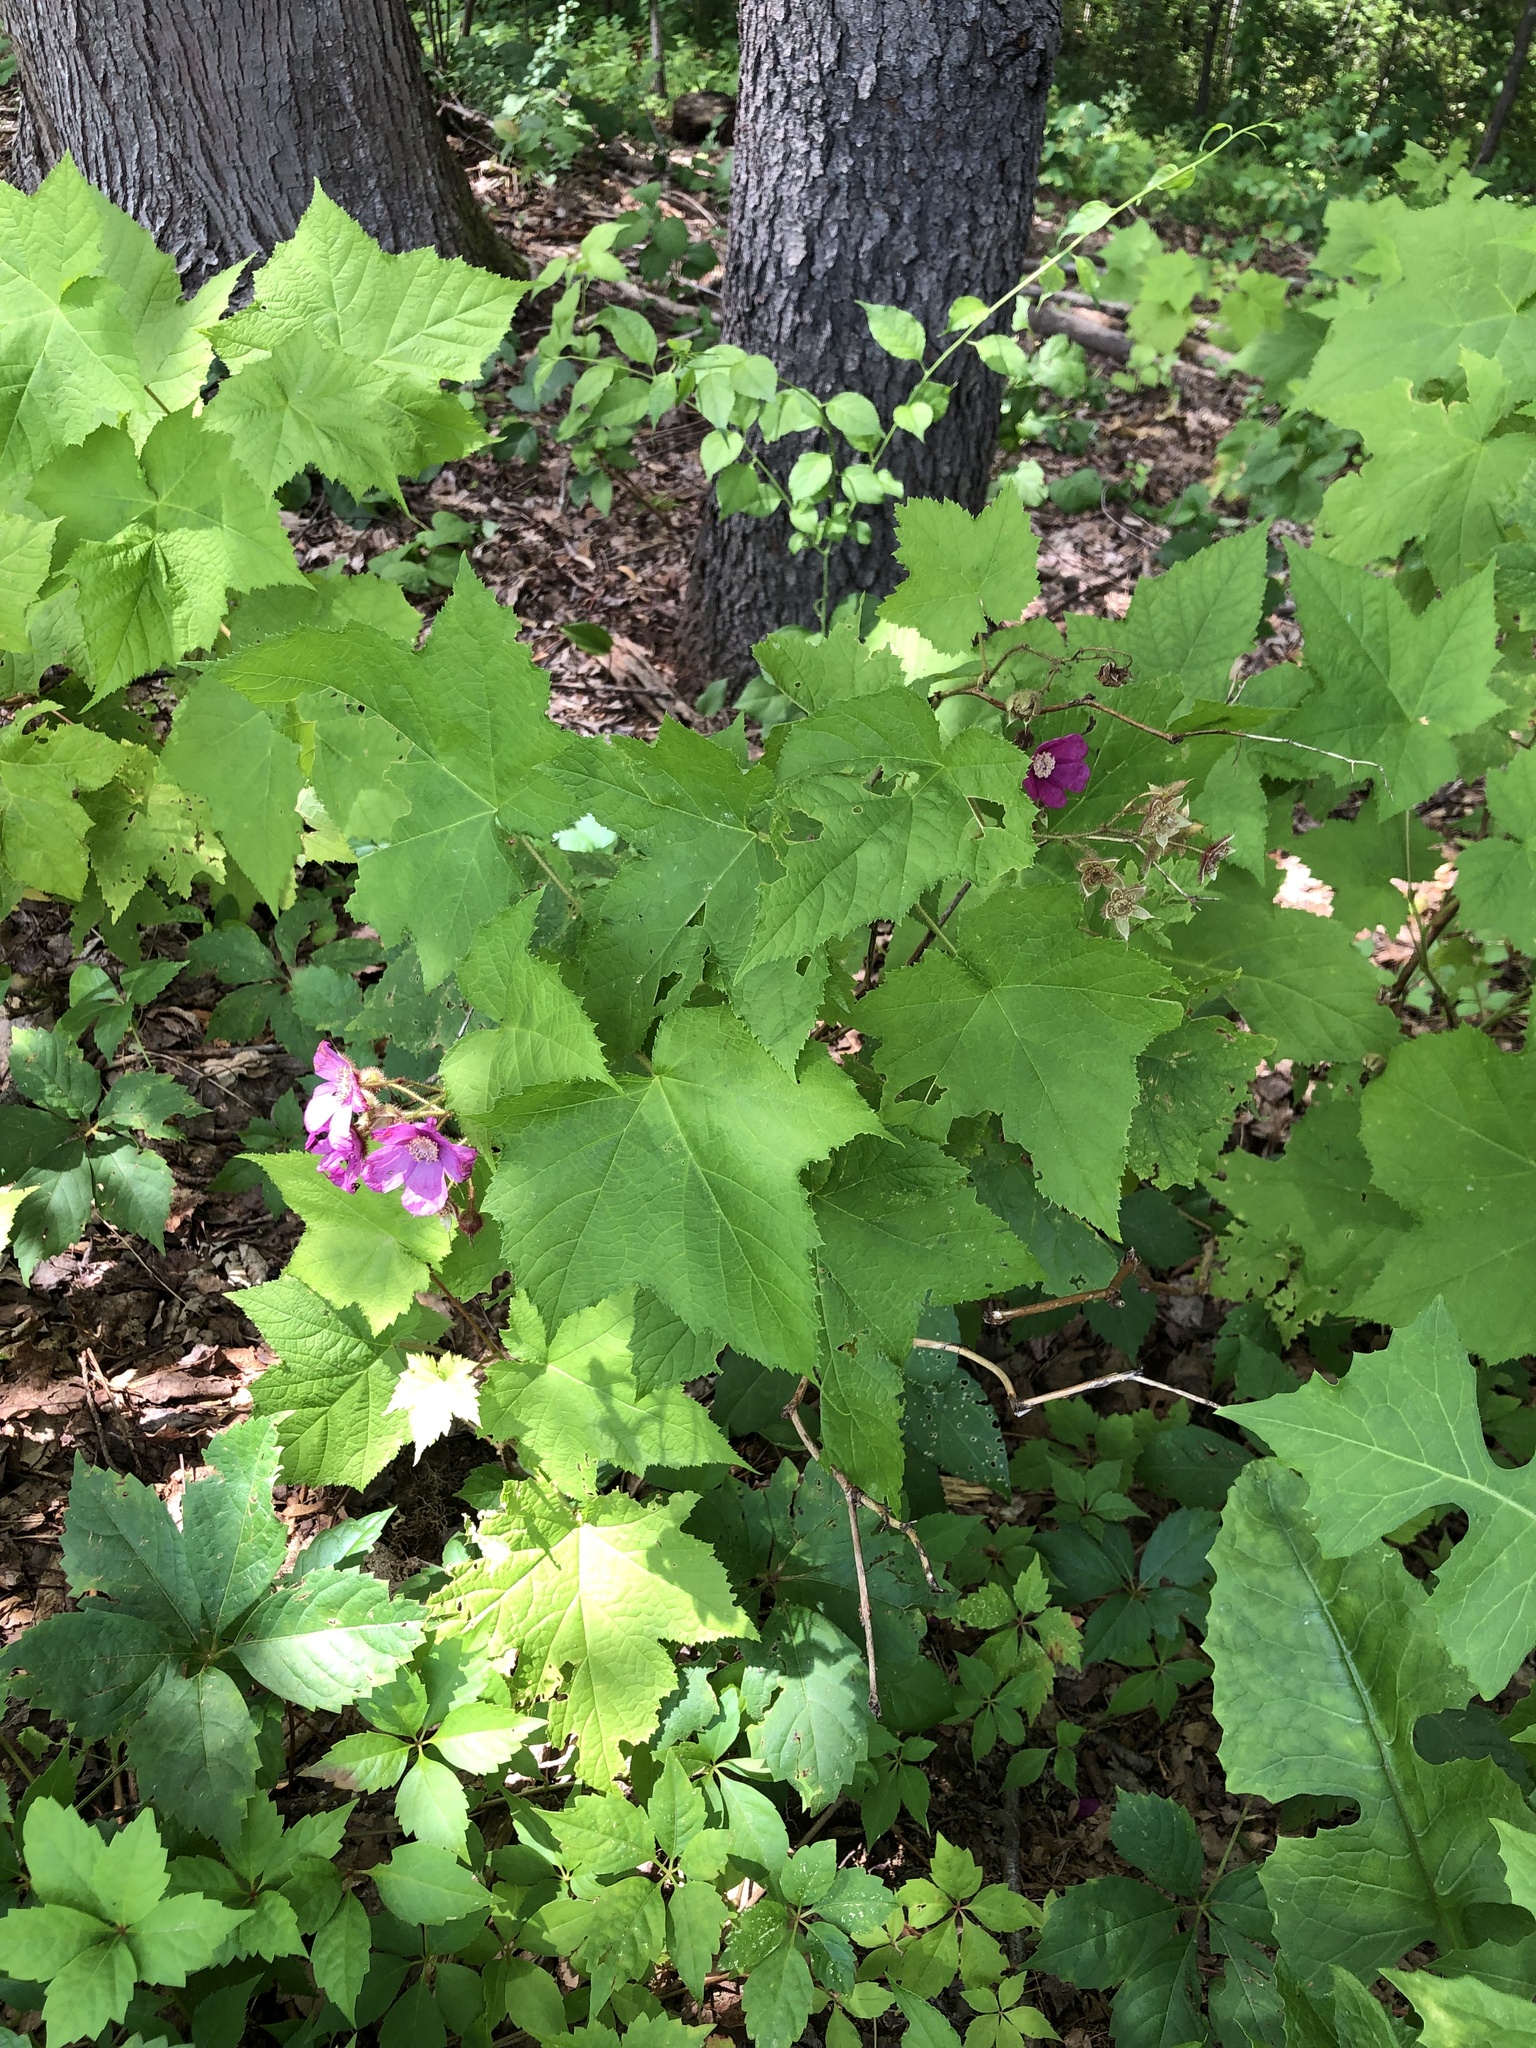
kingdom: Plantae
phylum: Tracheophyta
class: Magnoliopsida
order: Rosales
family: Rosaceae
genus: Rubus
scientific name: Rubus odoratus
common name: Purple-flowered raspberry
